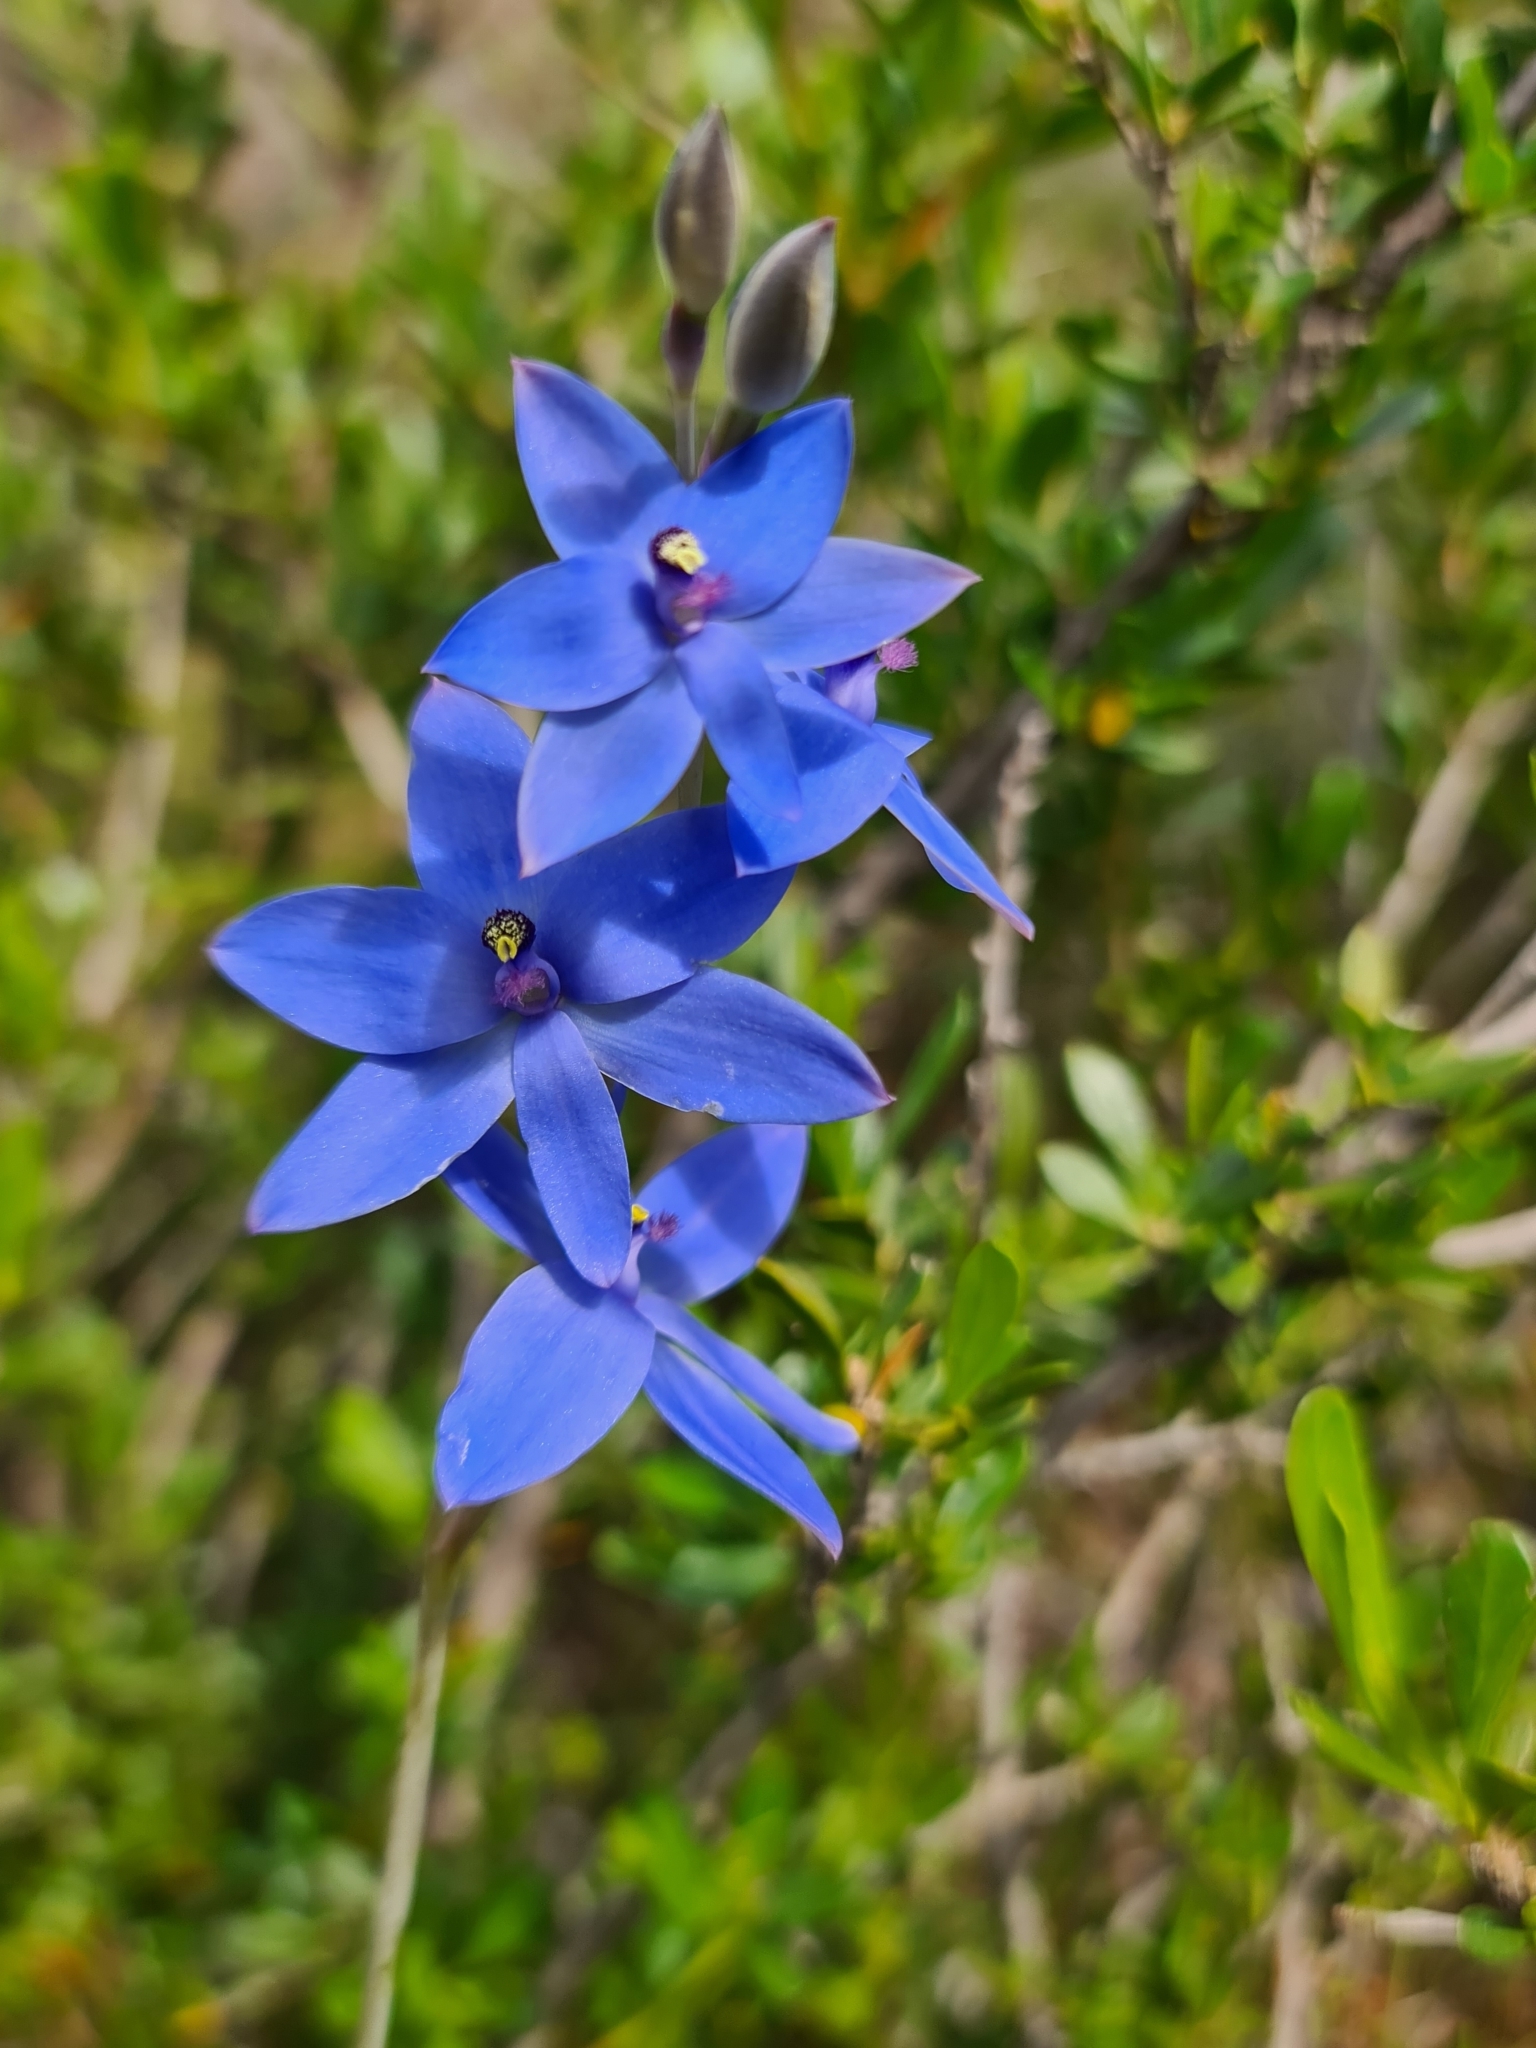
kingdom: Plantae
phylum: Tracheophyta
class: Liliopsida
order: Asparagales
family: Orchidaceae
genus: Thelymitra
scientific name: Thelymitra crinita
